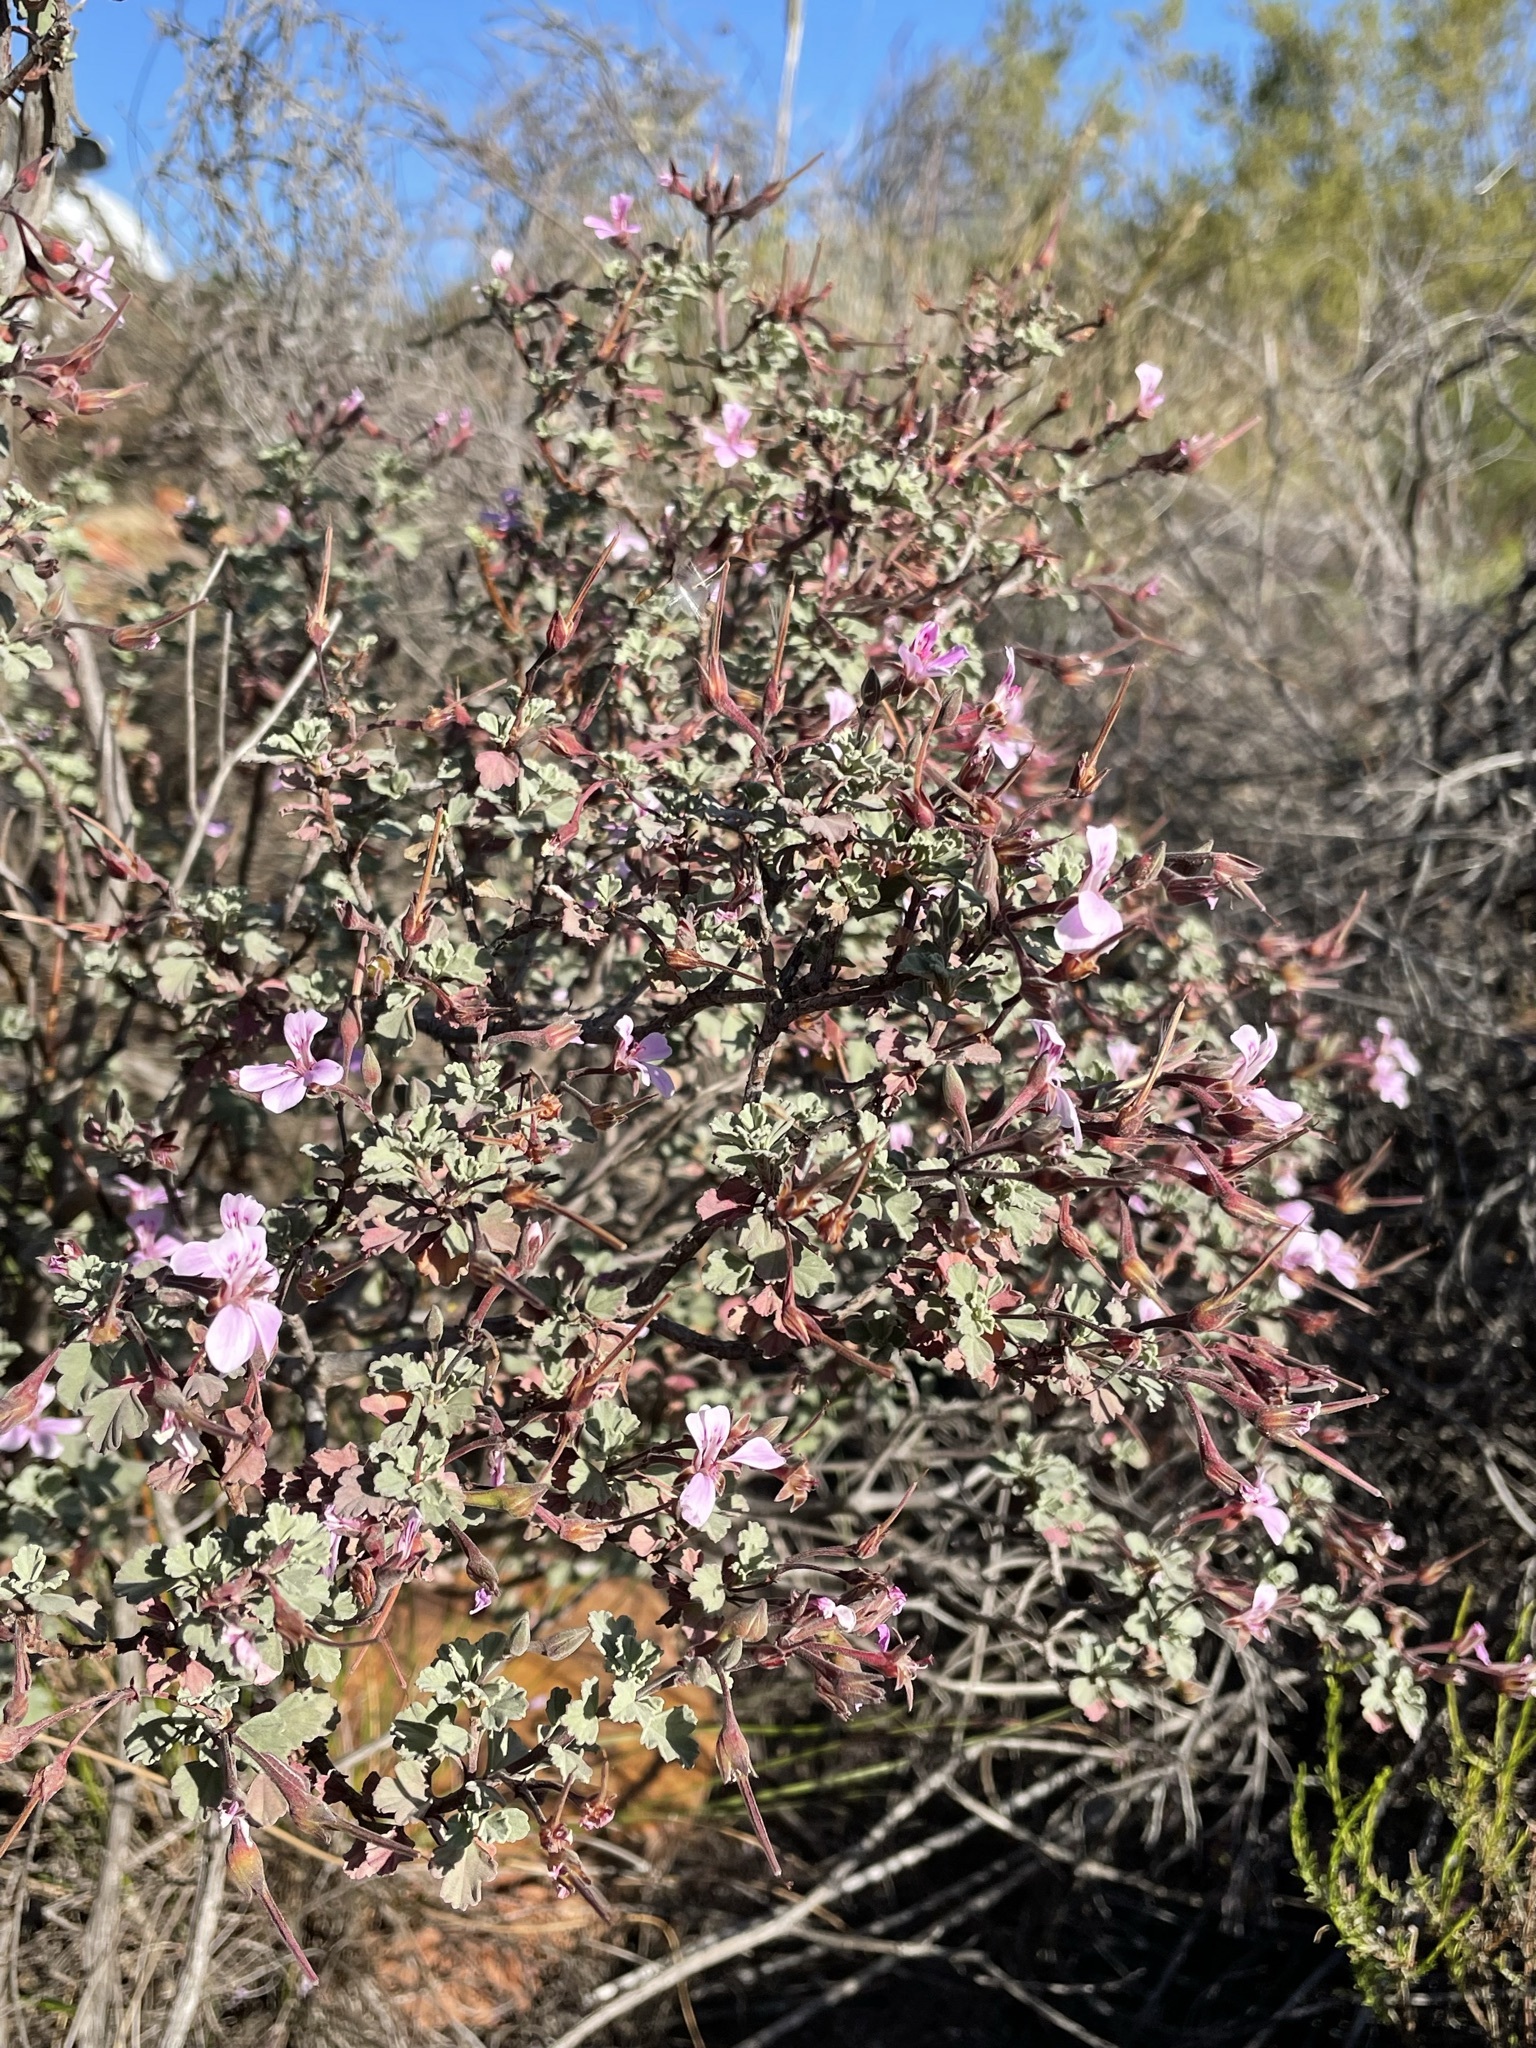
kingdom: Plantae
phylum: Tracheophyta
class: Magnoliopsida
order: Geraniales
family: Geraniaceae
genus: Pelargonium
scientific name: Pelargonium exstipulatum
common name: Soft-leaf trifid pelargonium
